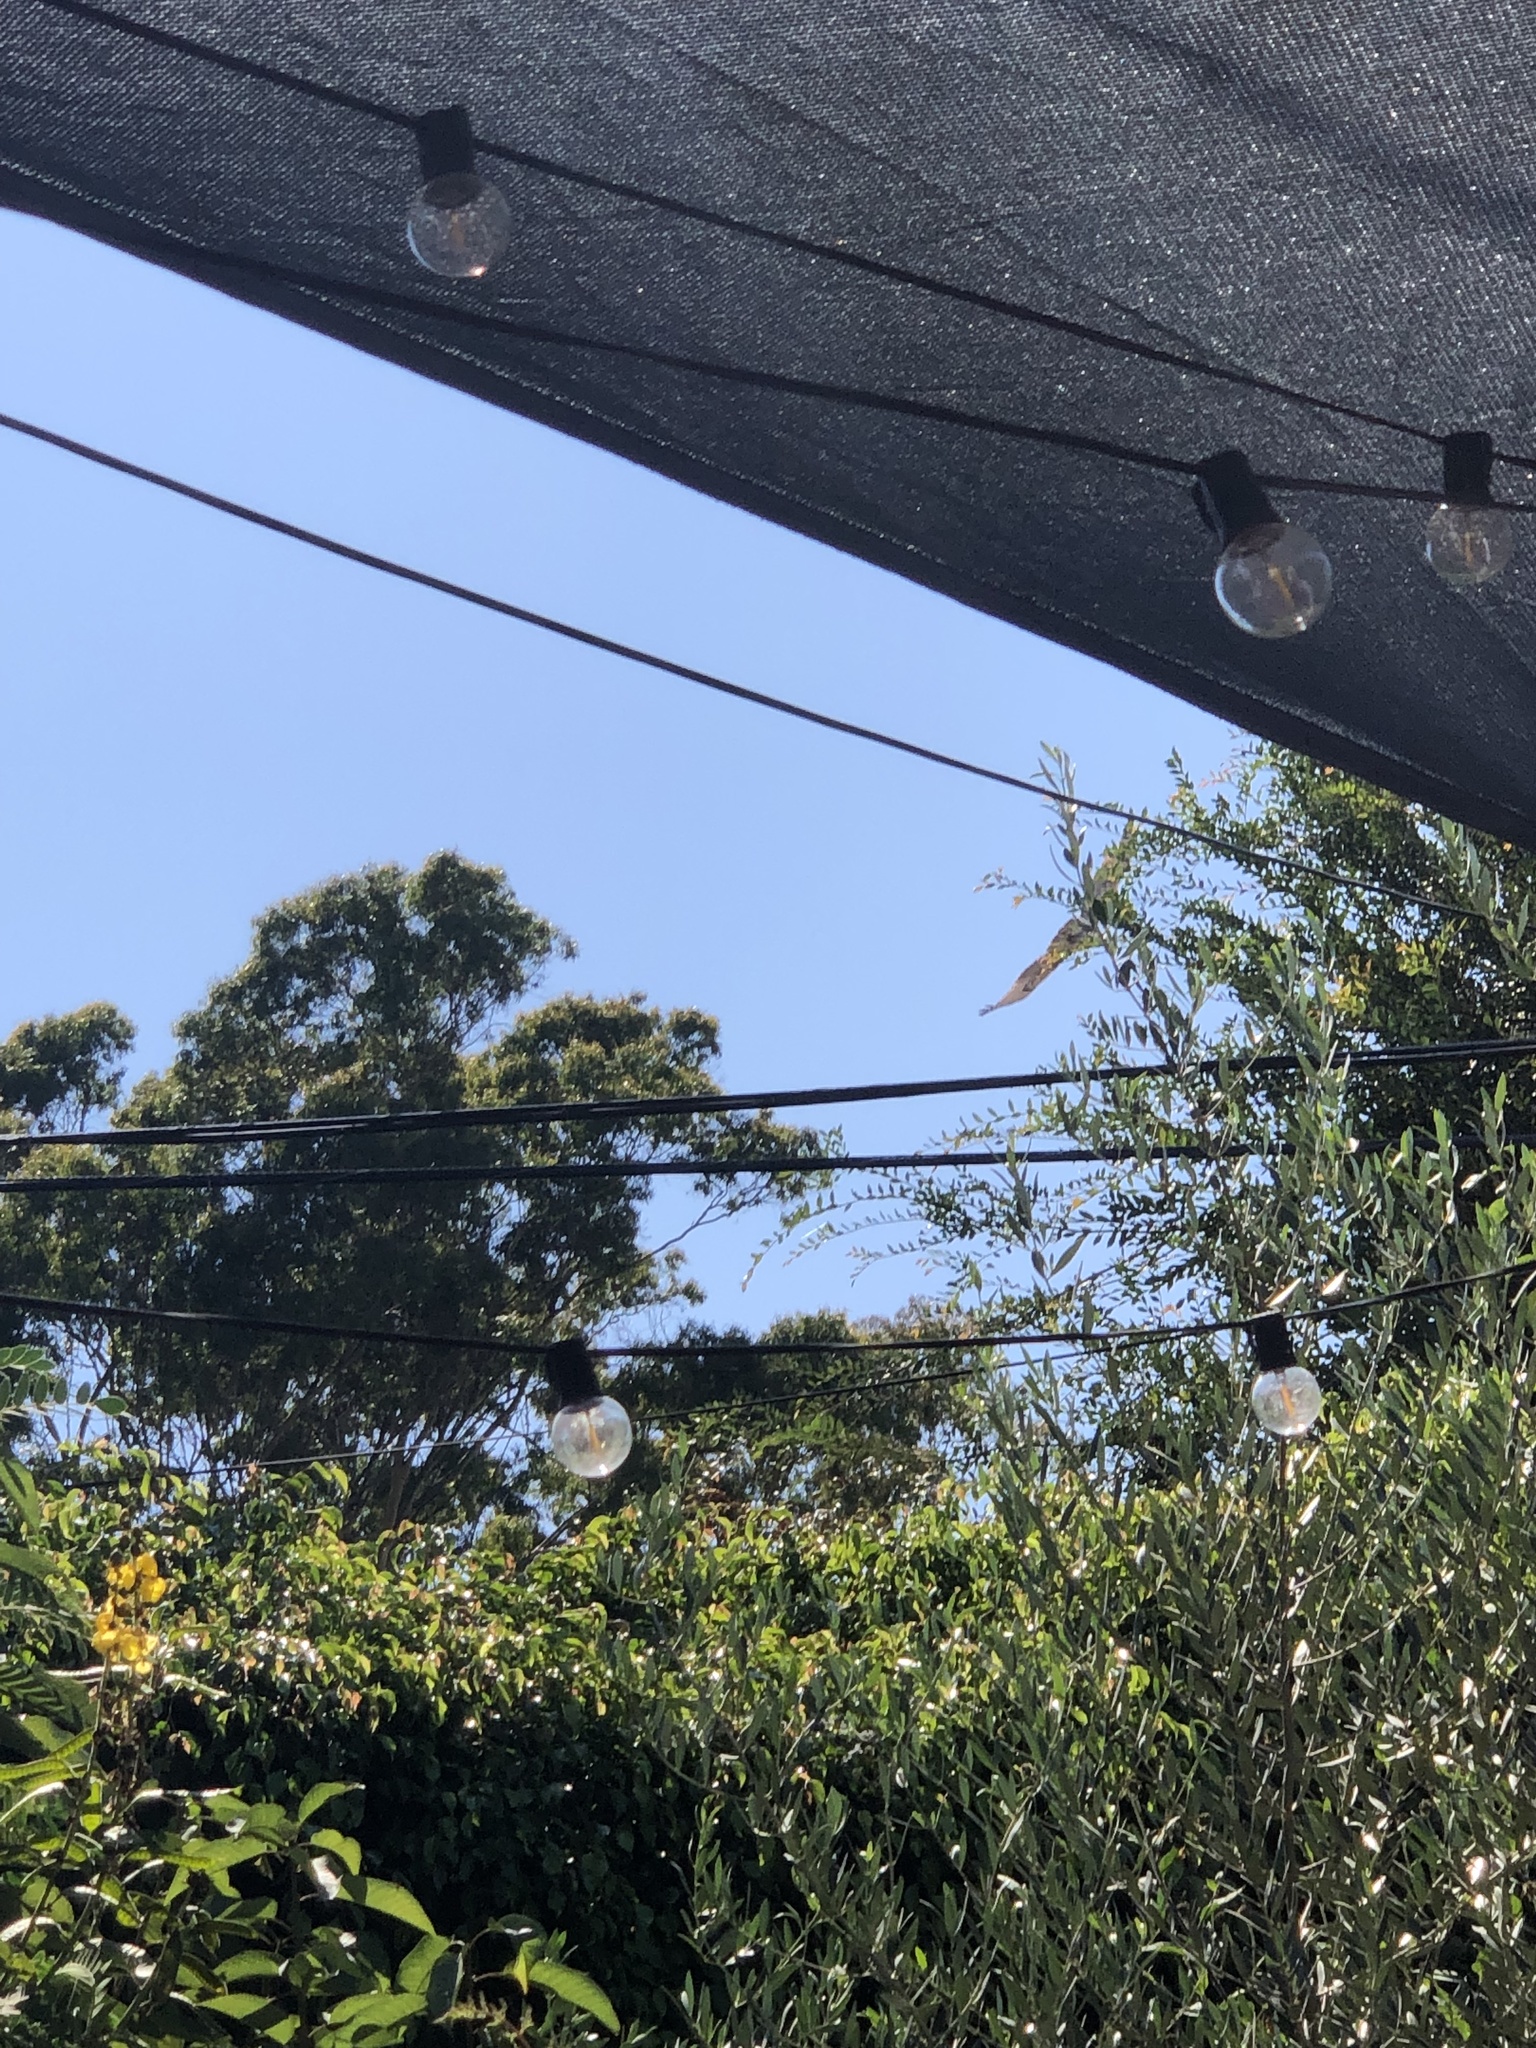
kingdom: Animalia
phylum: Chordata
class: Aves
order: Accipitriformes
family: Accipitridae
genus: Buteo
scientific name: Buteo jamaicensis
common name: Red-tailed hawk
